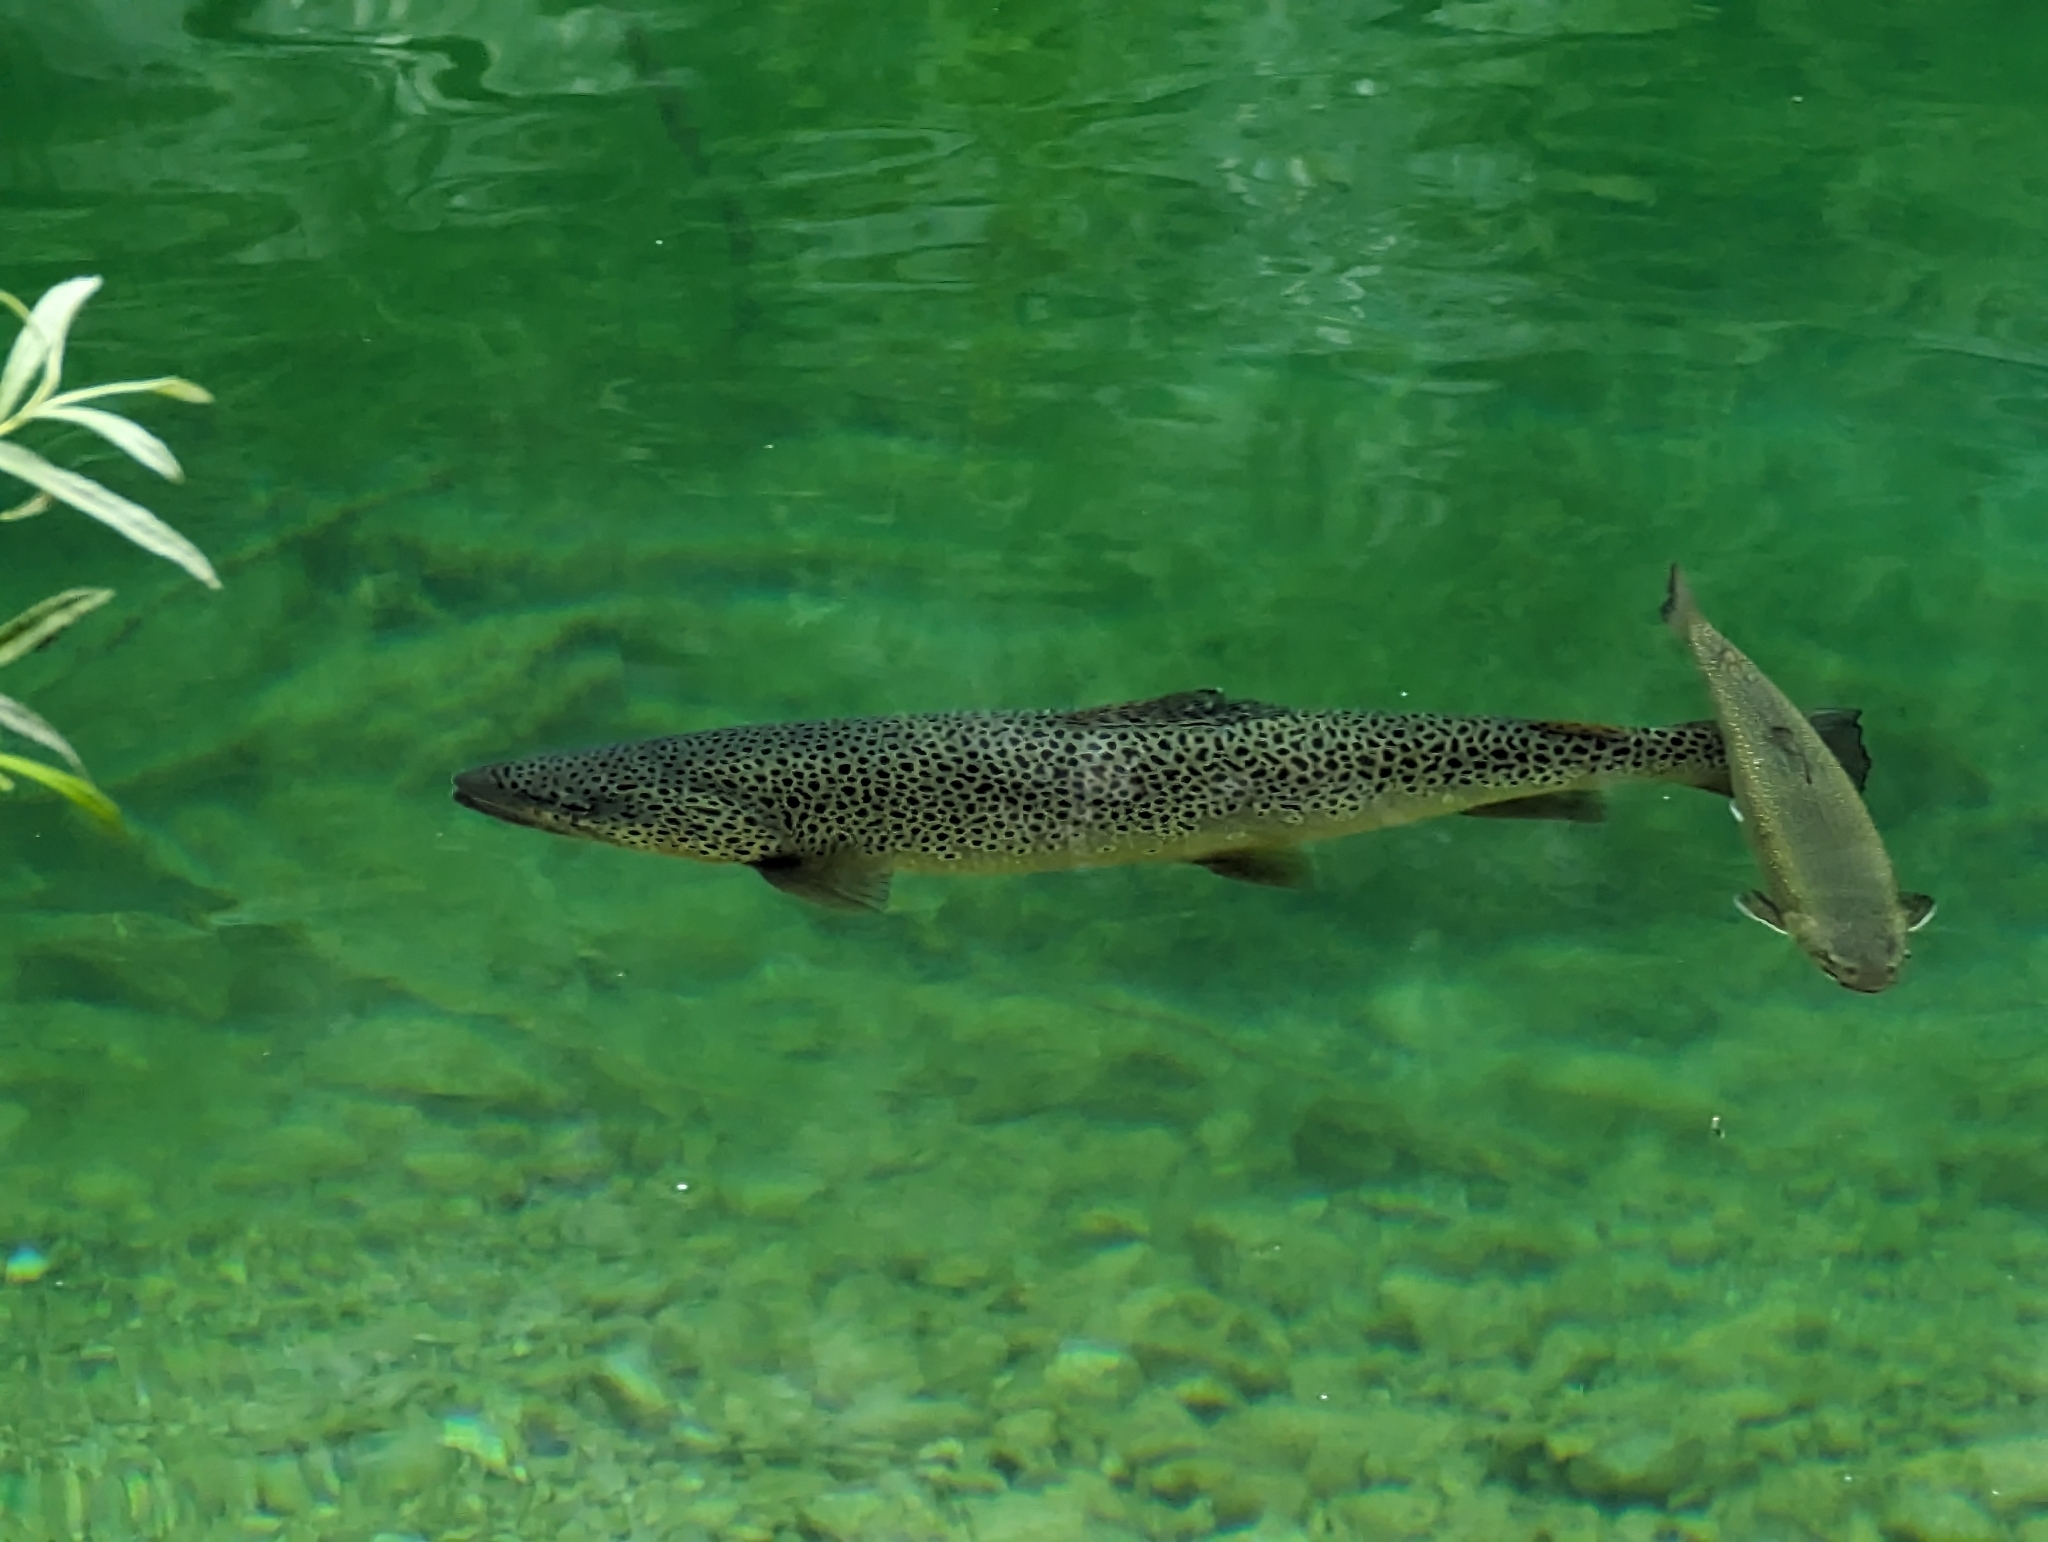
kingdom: Animalia
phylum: Chordata
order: Salmoniformes
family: Salmonidae
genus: Salmo
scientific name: Salmo trutta
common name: Brown trout
